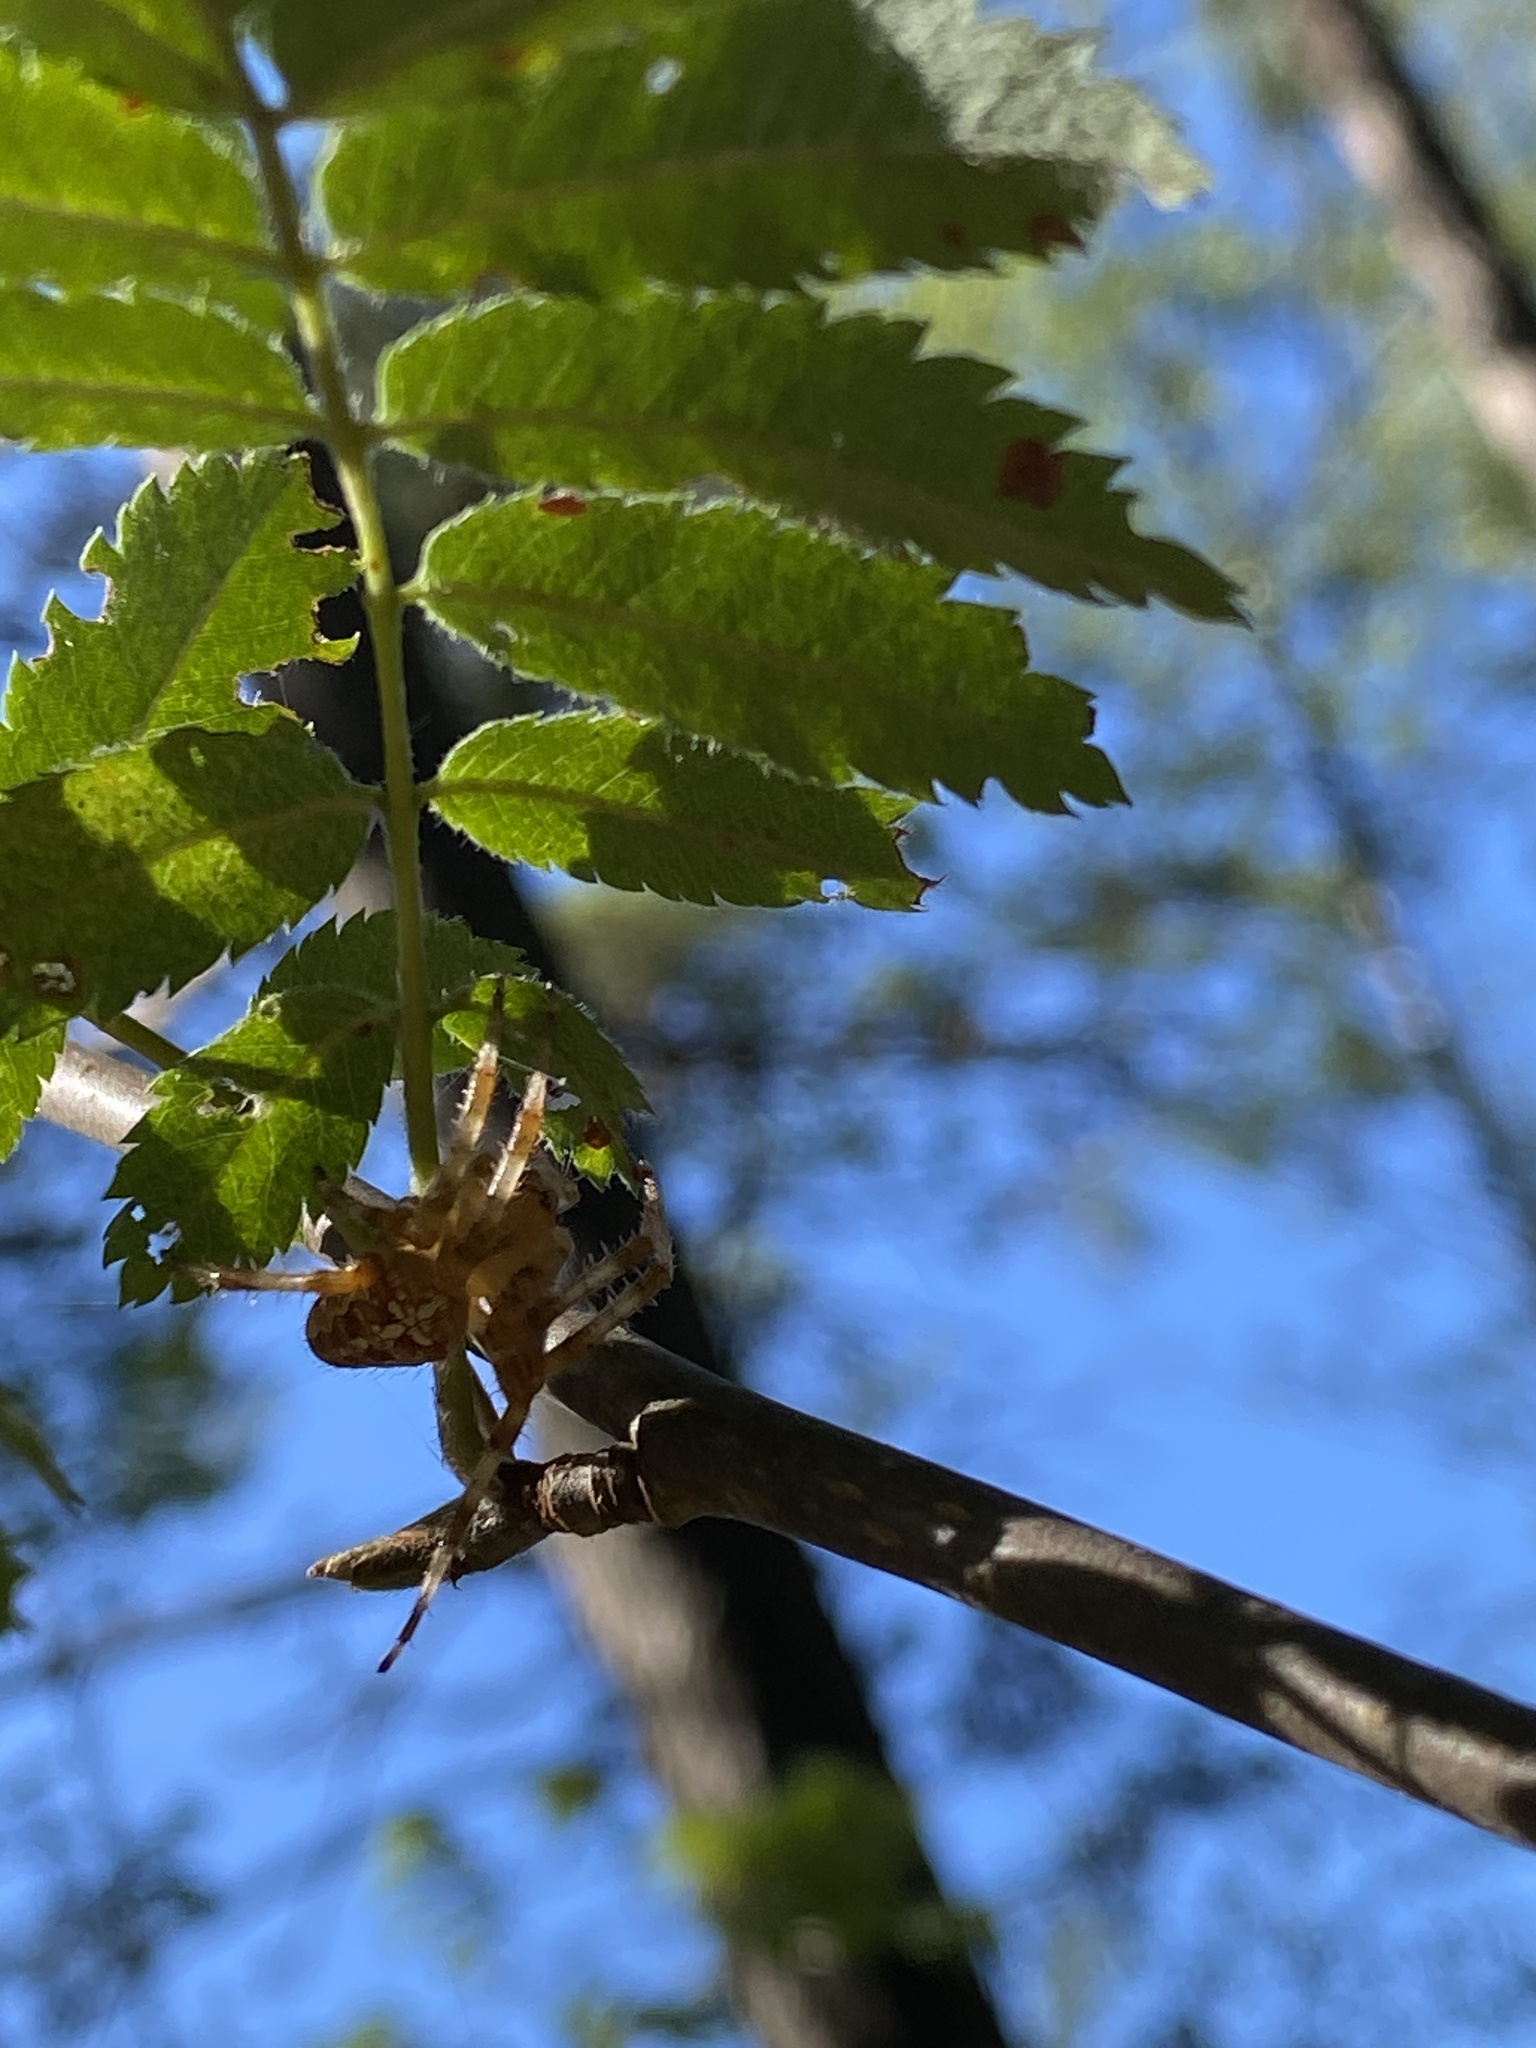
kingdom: Animalia
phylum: Arthropoda
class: Arachnida
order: Araneae
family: Araneidae
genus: Araneus
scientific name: Araneus diadematus
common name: Cross orbweaver
